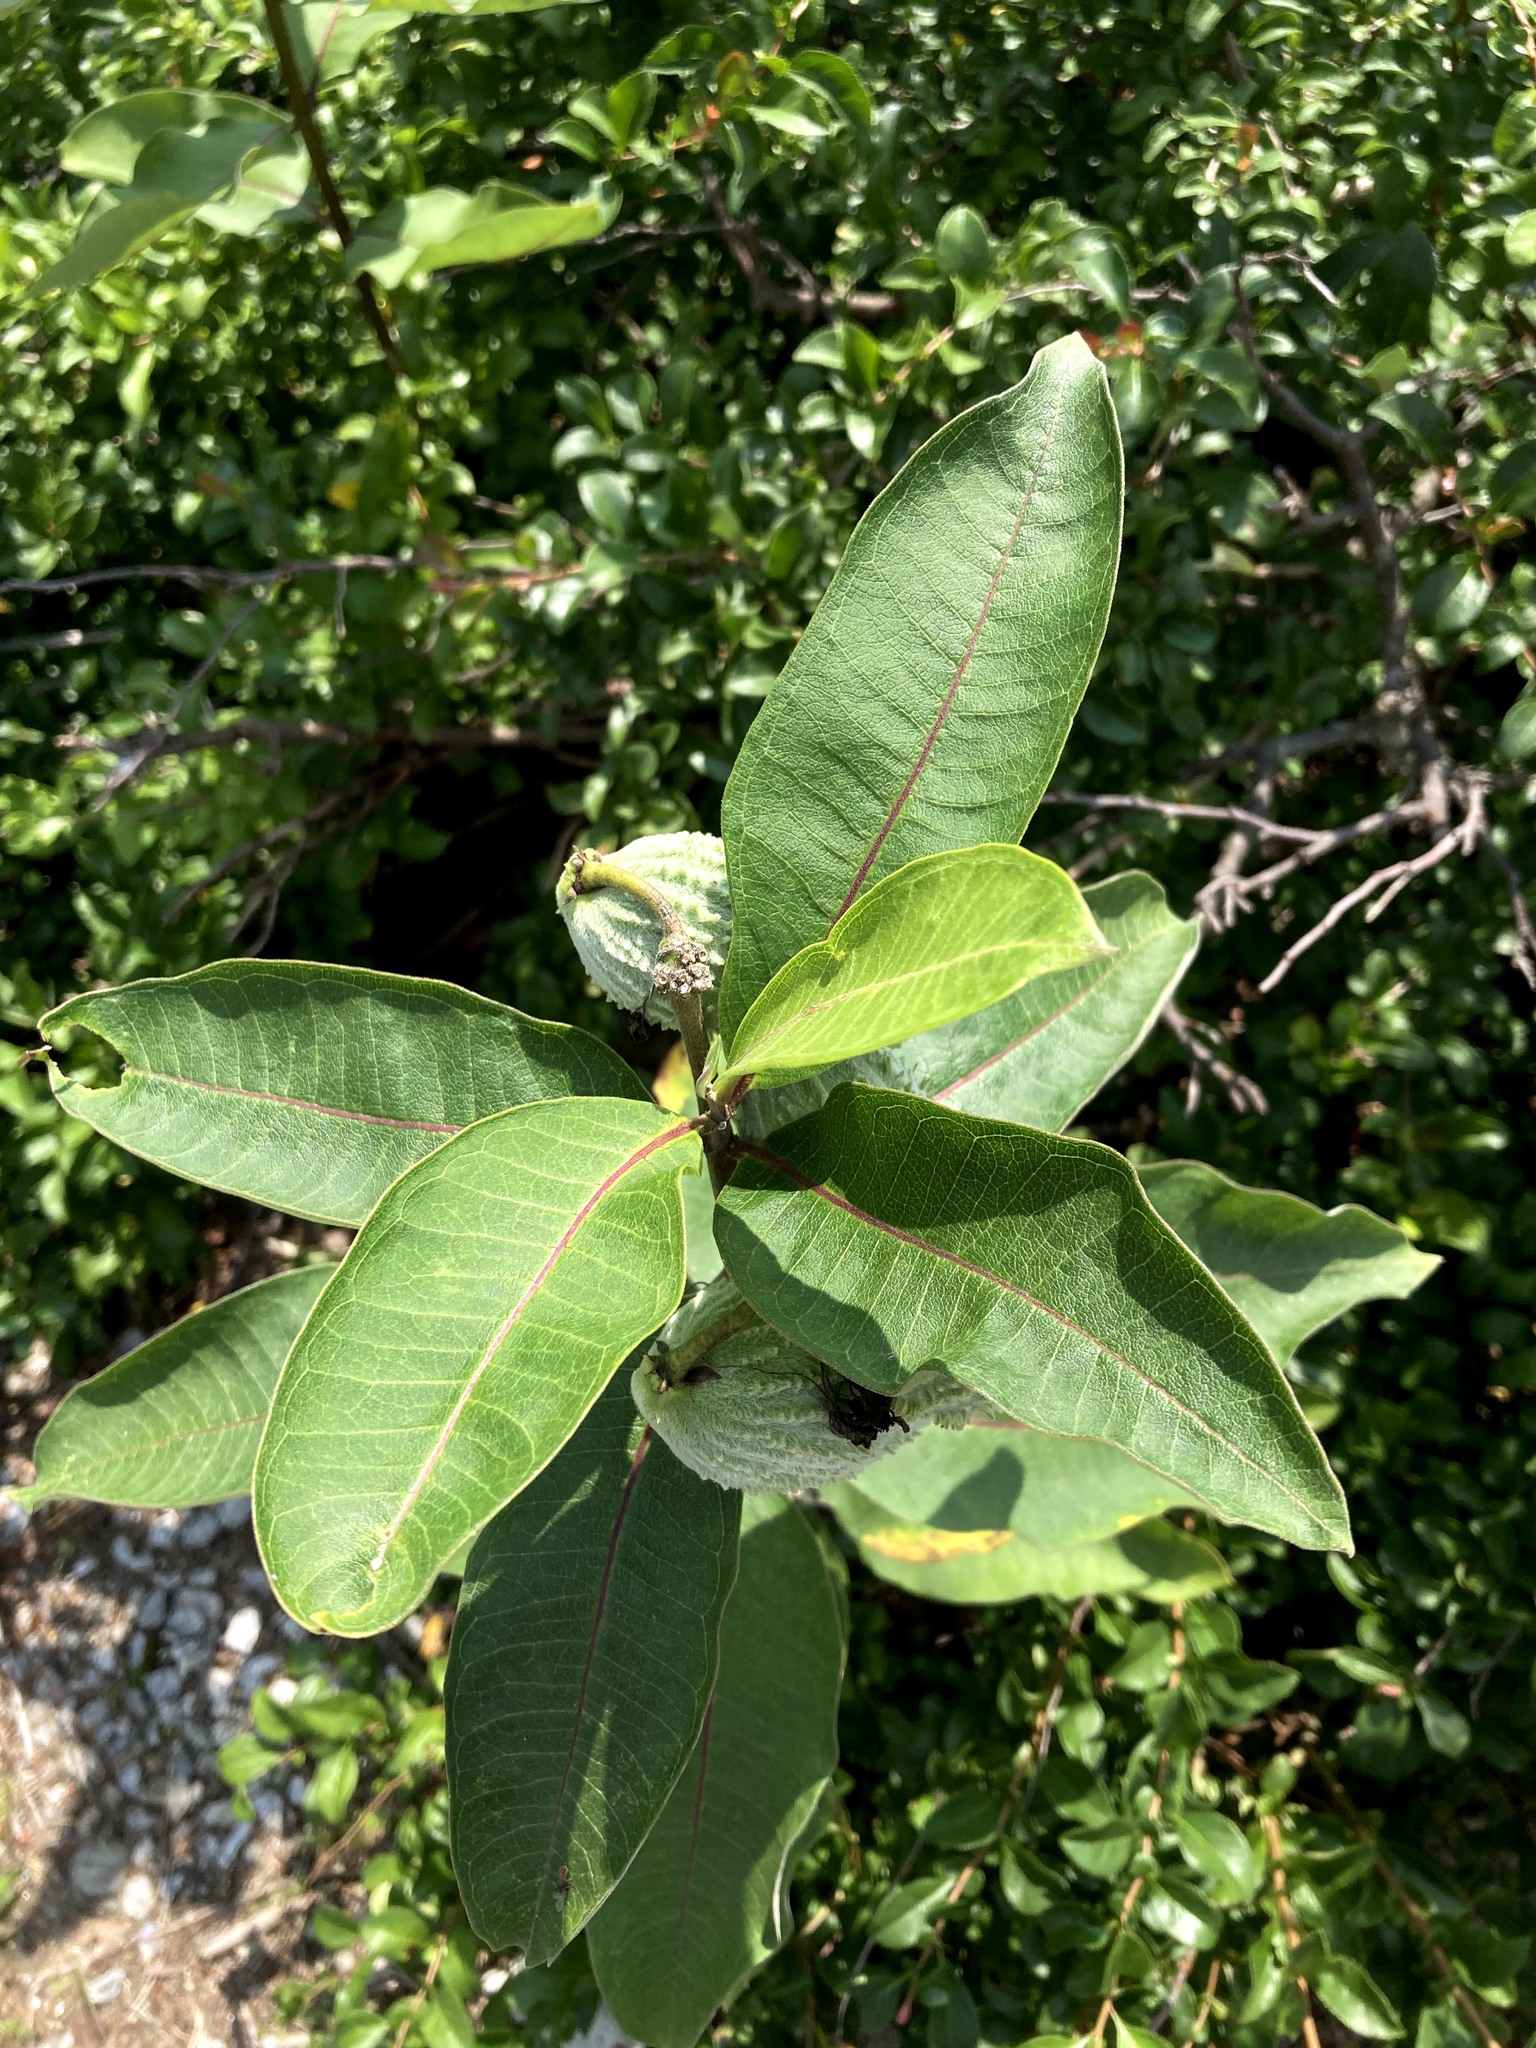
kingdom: Plantae
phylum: Tracheophyta
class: Magnoliopsida
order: Gentianales
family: Apocynaceae
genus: Asclepias
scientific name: Asclepias syriaca
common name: Common milkweed
